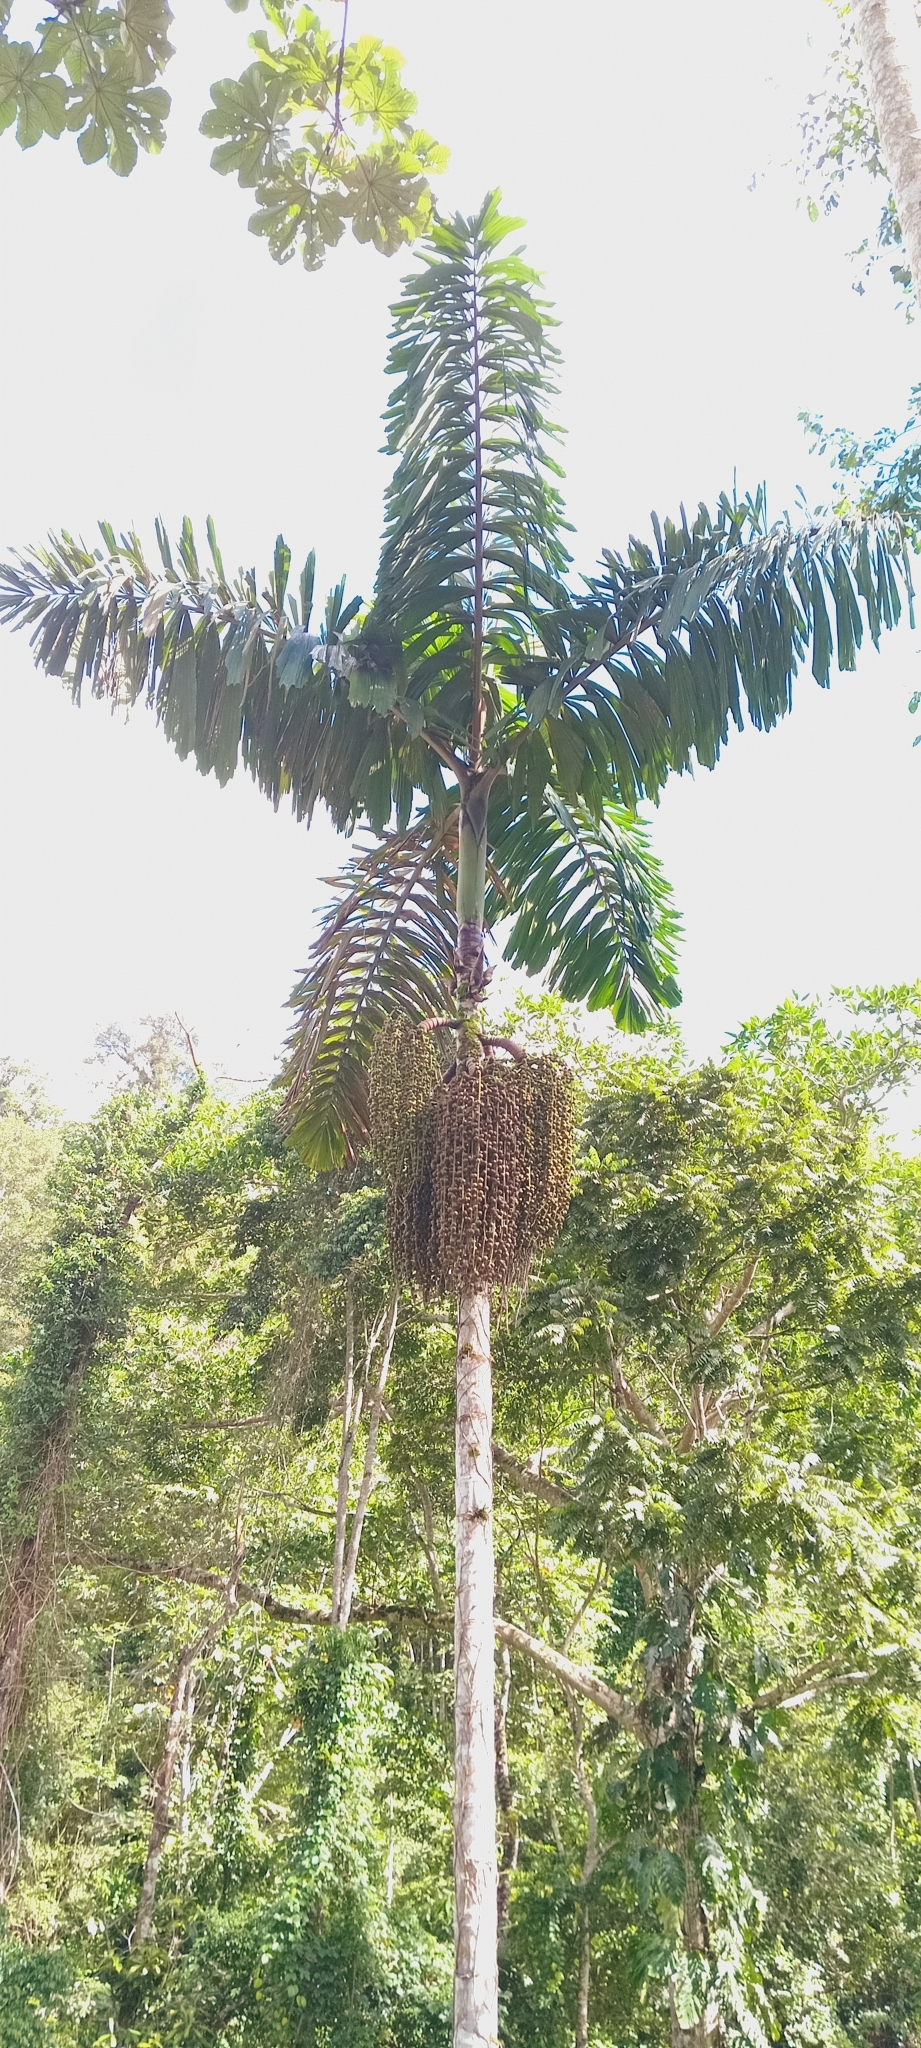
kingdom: Plantae
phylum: Tracheophyta
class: Liliopsida
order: Arecales
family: Arecaceae
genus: Iriartea
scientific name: Iriartea deltoidea
